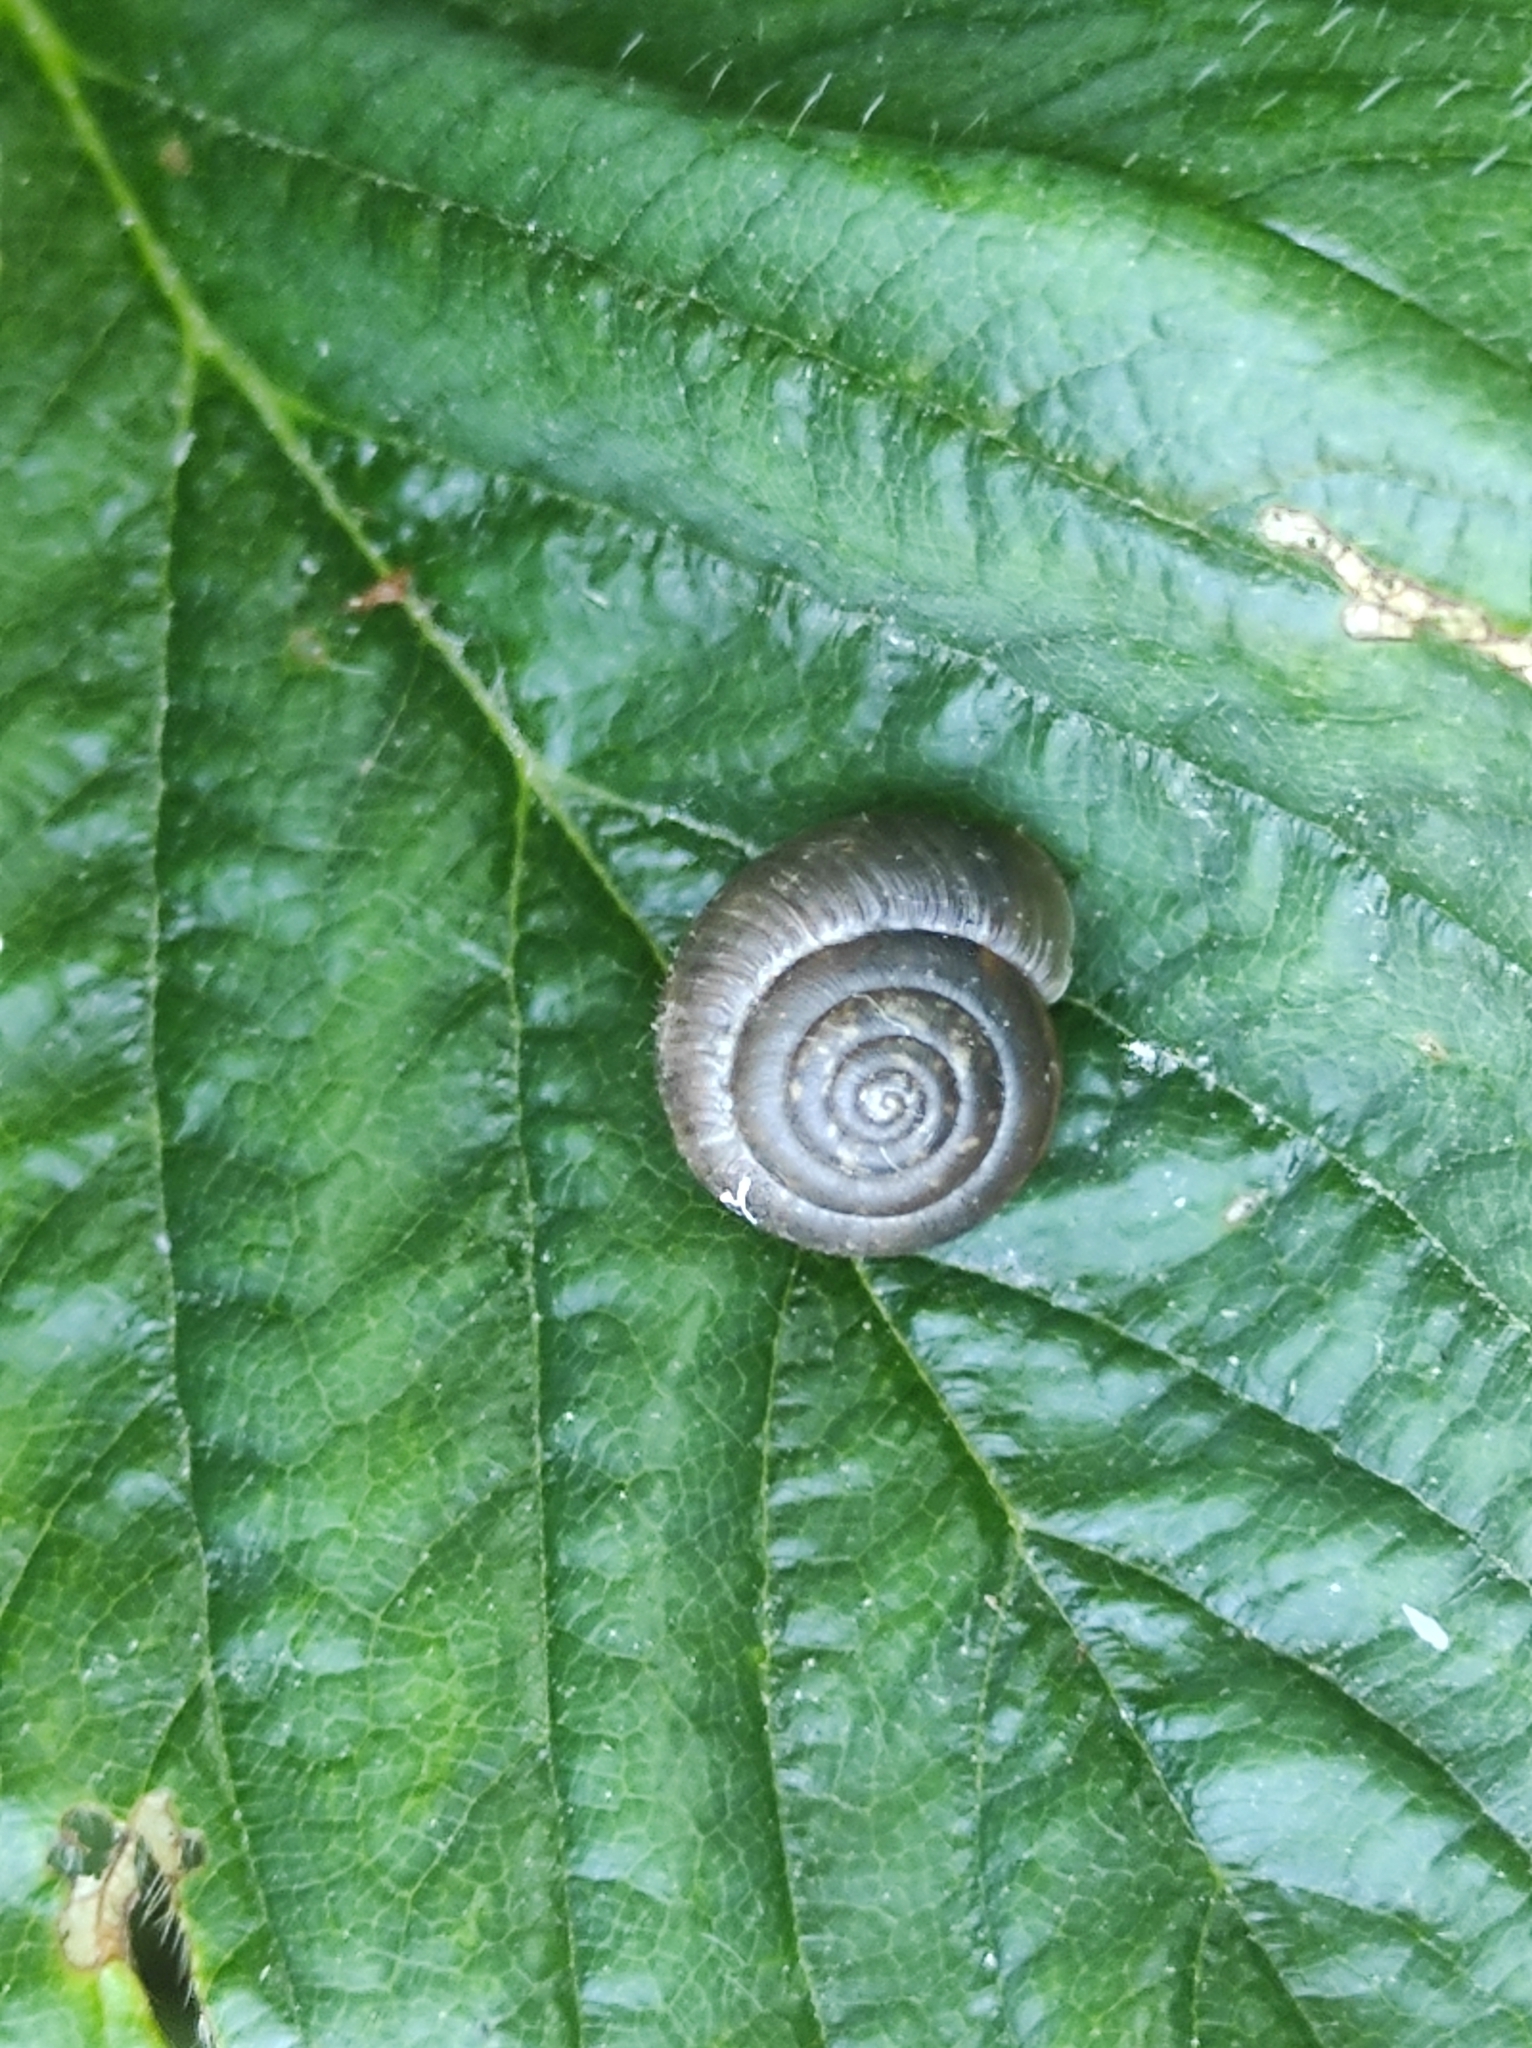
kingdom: Animalia
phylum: Mollusca
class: Gastropoda
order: Stylommatophora
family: Camaenidae
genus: Fruticicola
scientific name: Fruticicola fruticum
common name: Bush snail
